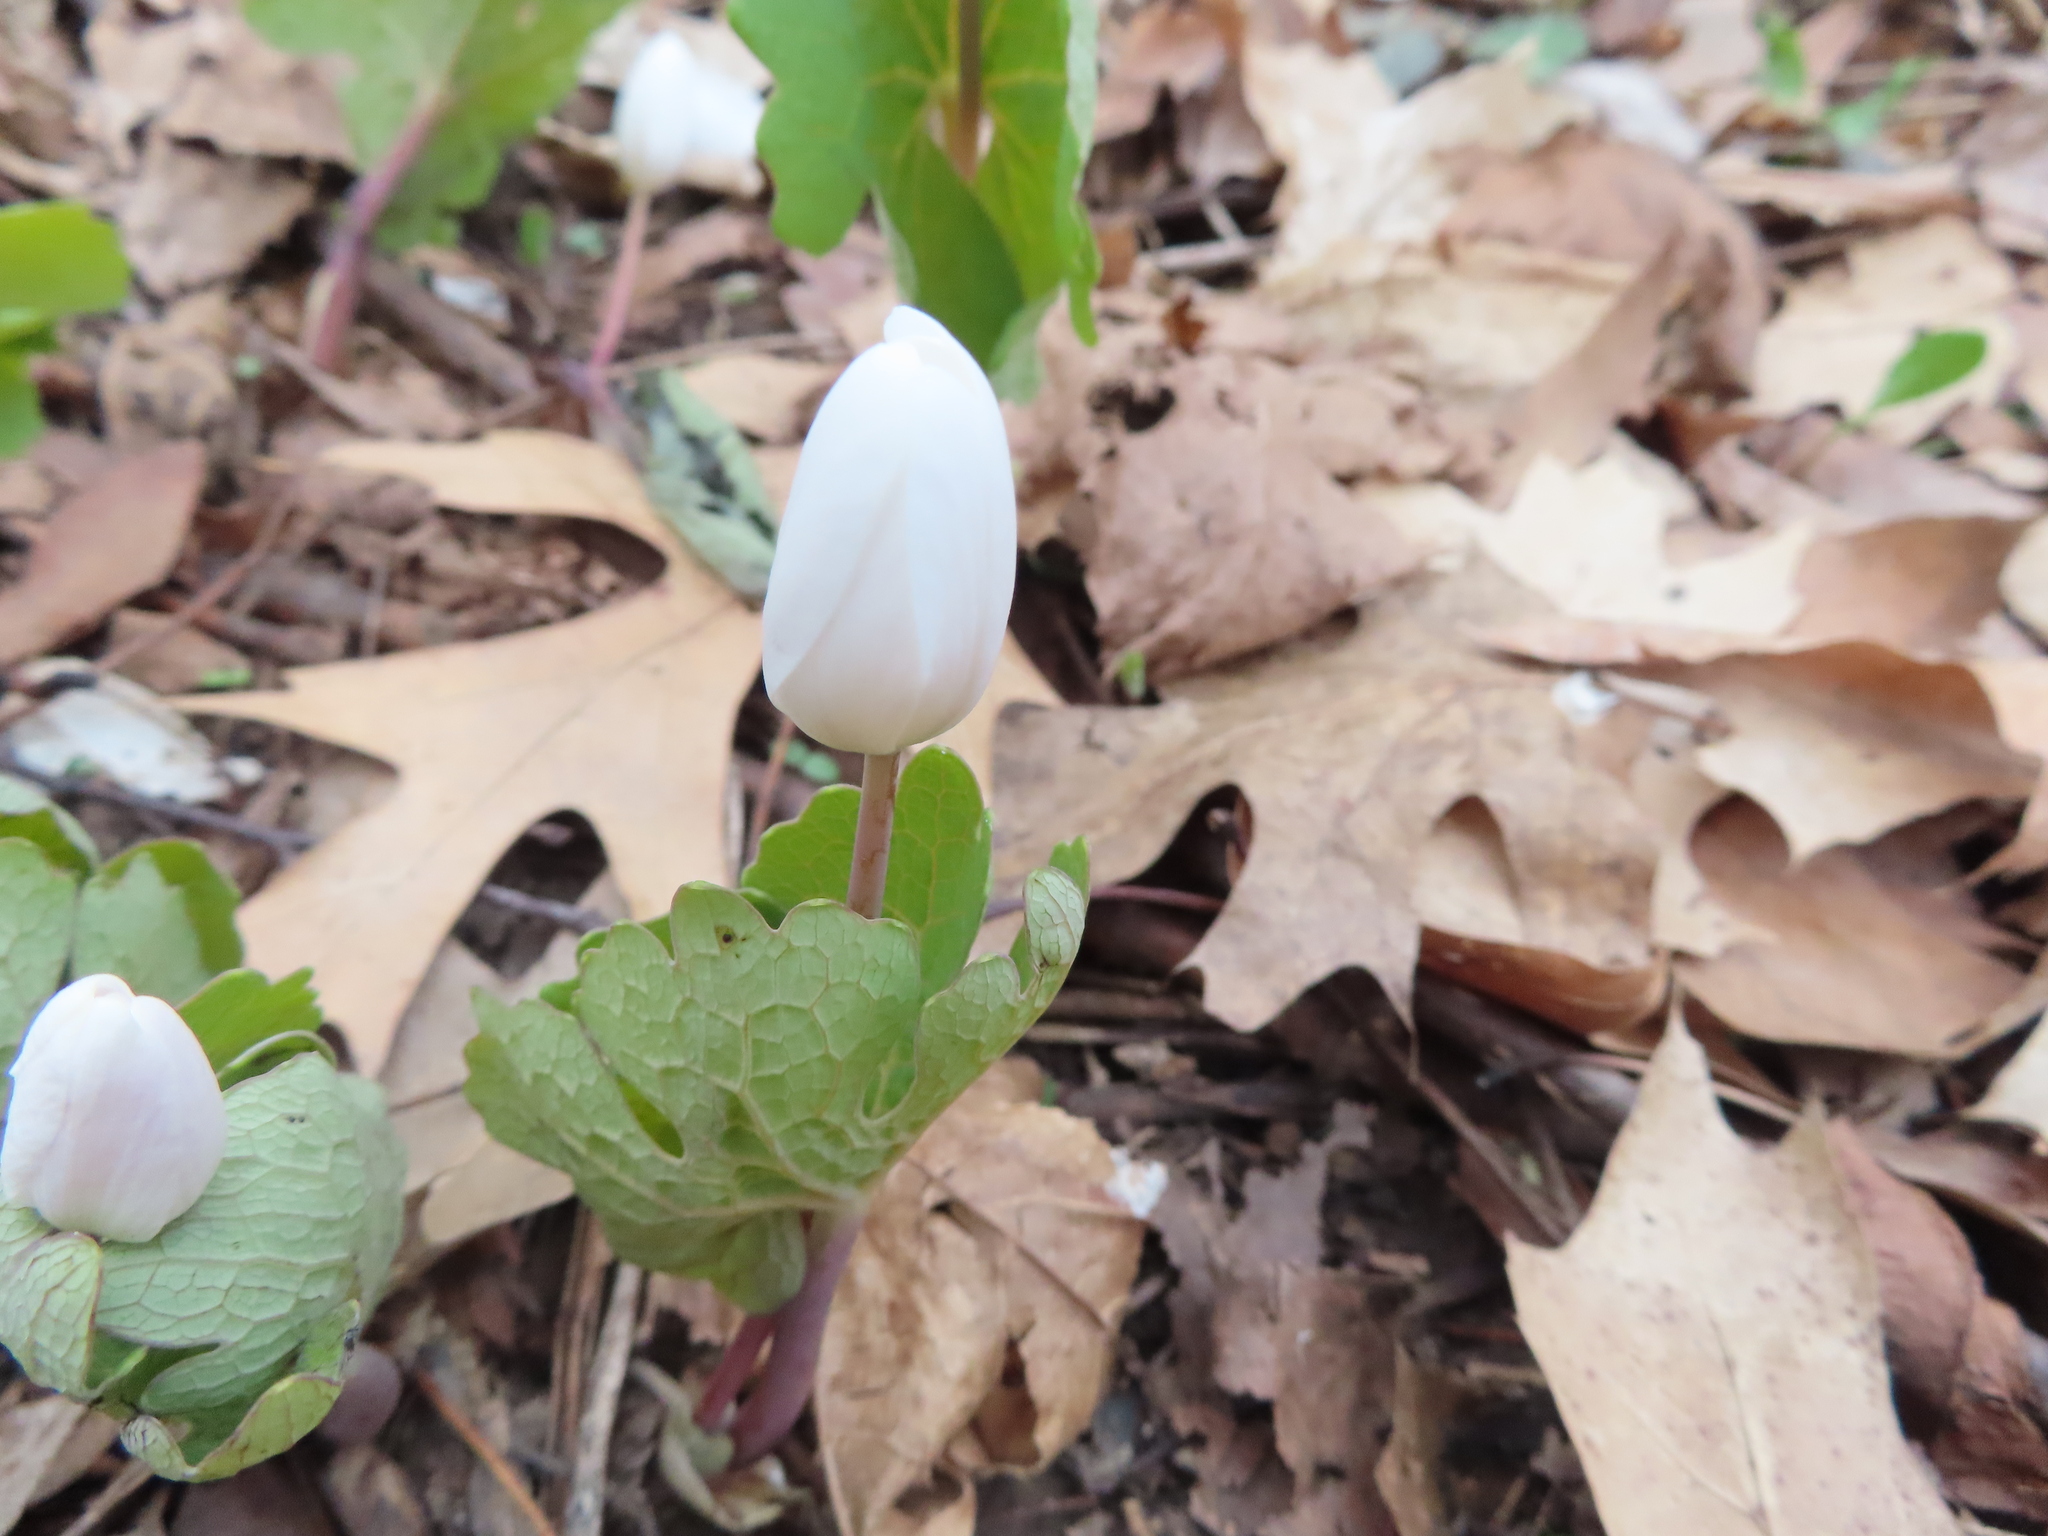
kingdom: Plantae
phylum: Tracheophyta
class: Magnoliopsida
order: Ranunculales
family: Papaveraceae
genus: Sanguinaria
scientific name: Sanguinaria canadensis
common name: Bloodroot
